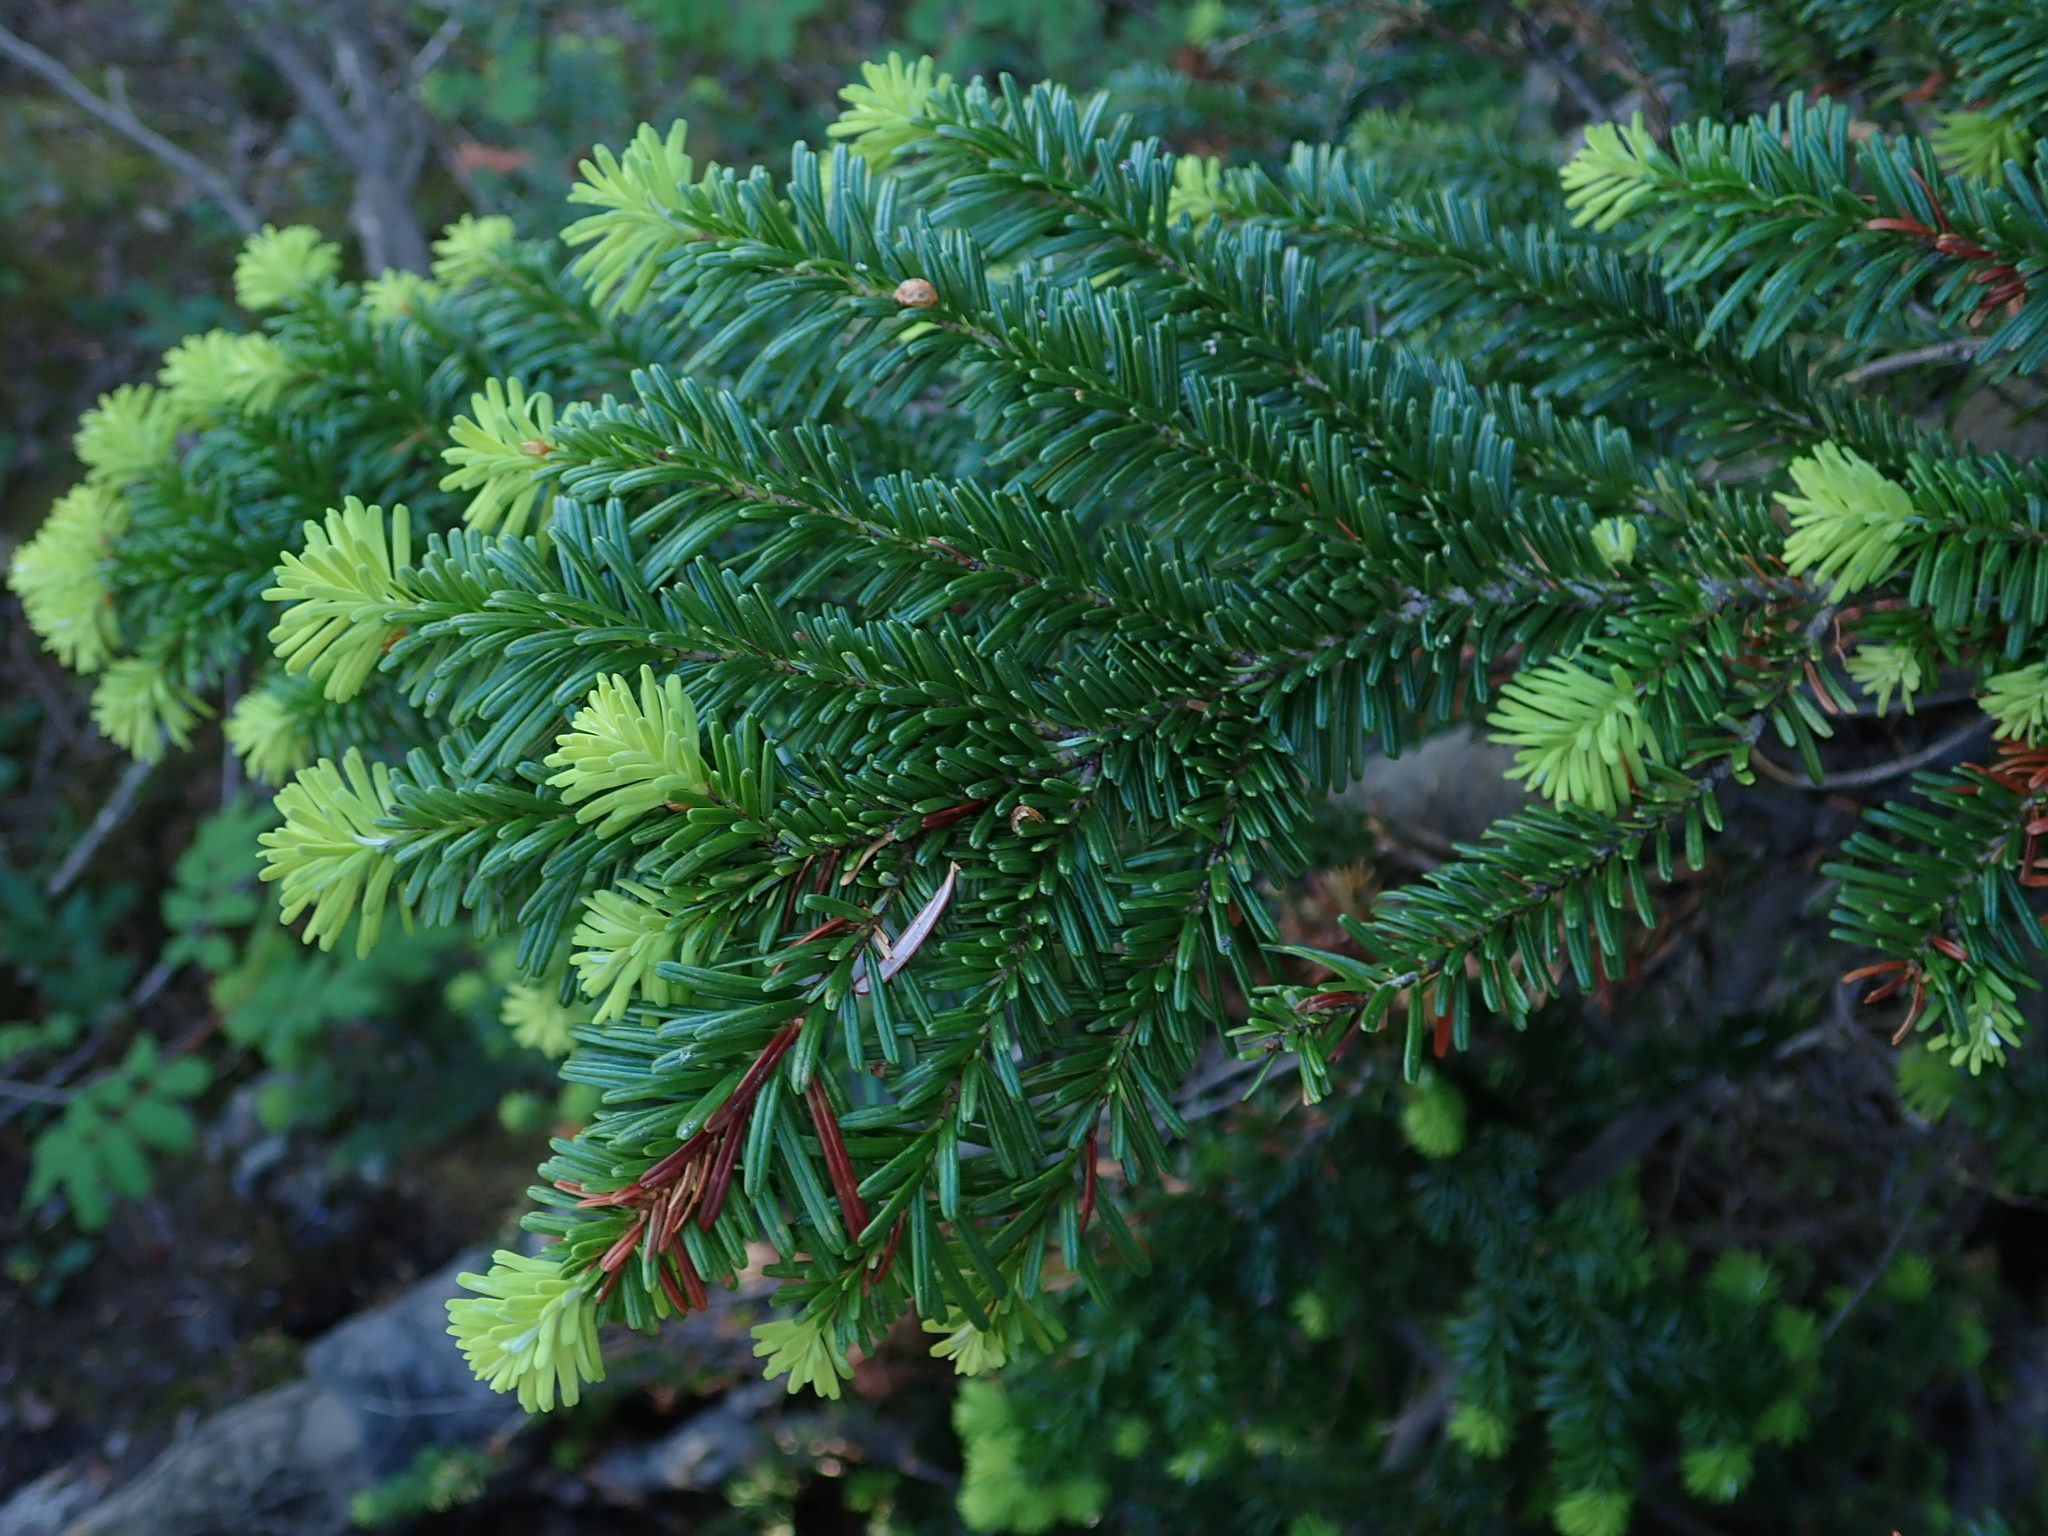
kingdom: Plantae
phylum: Tracheophyta
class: Pinopsida
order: Pinales
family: Pinaceae
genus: Abies
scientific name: Abies amabilis
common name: Pacific silver fir
